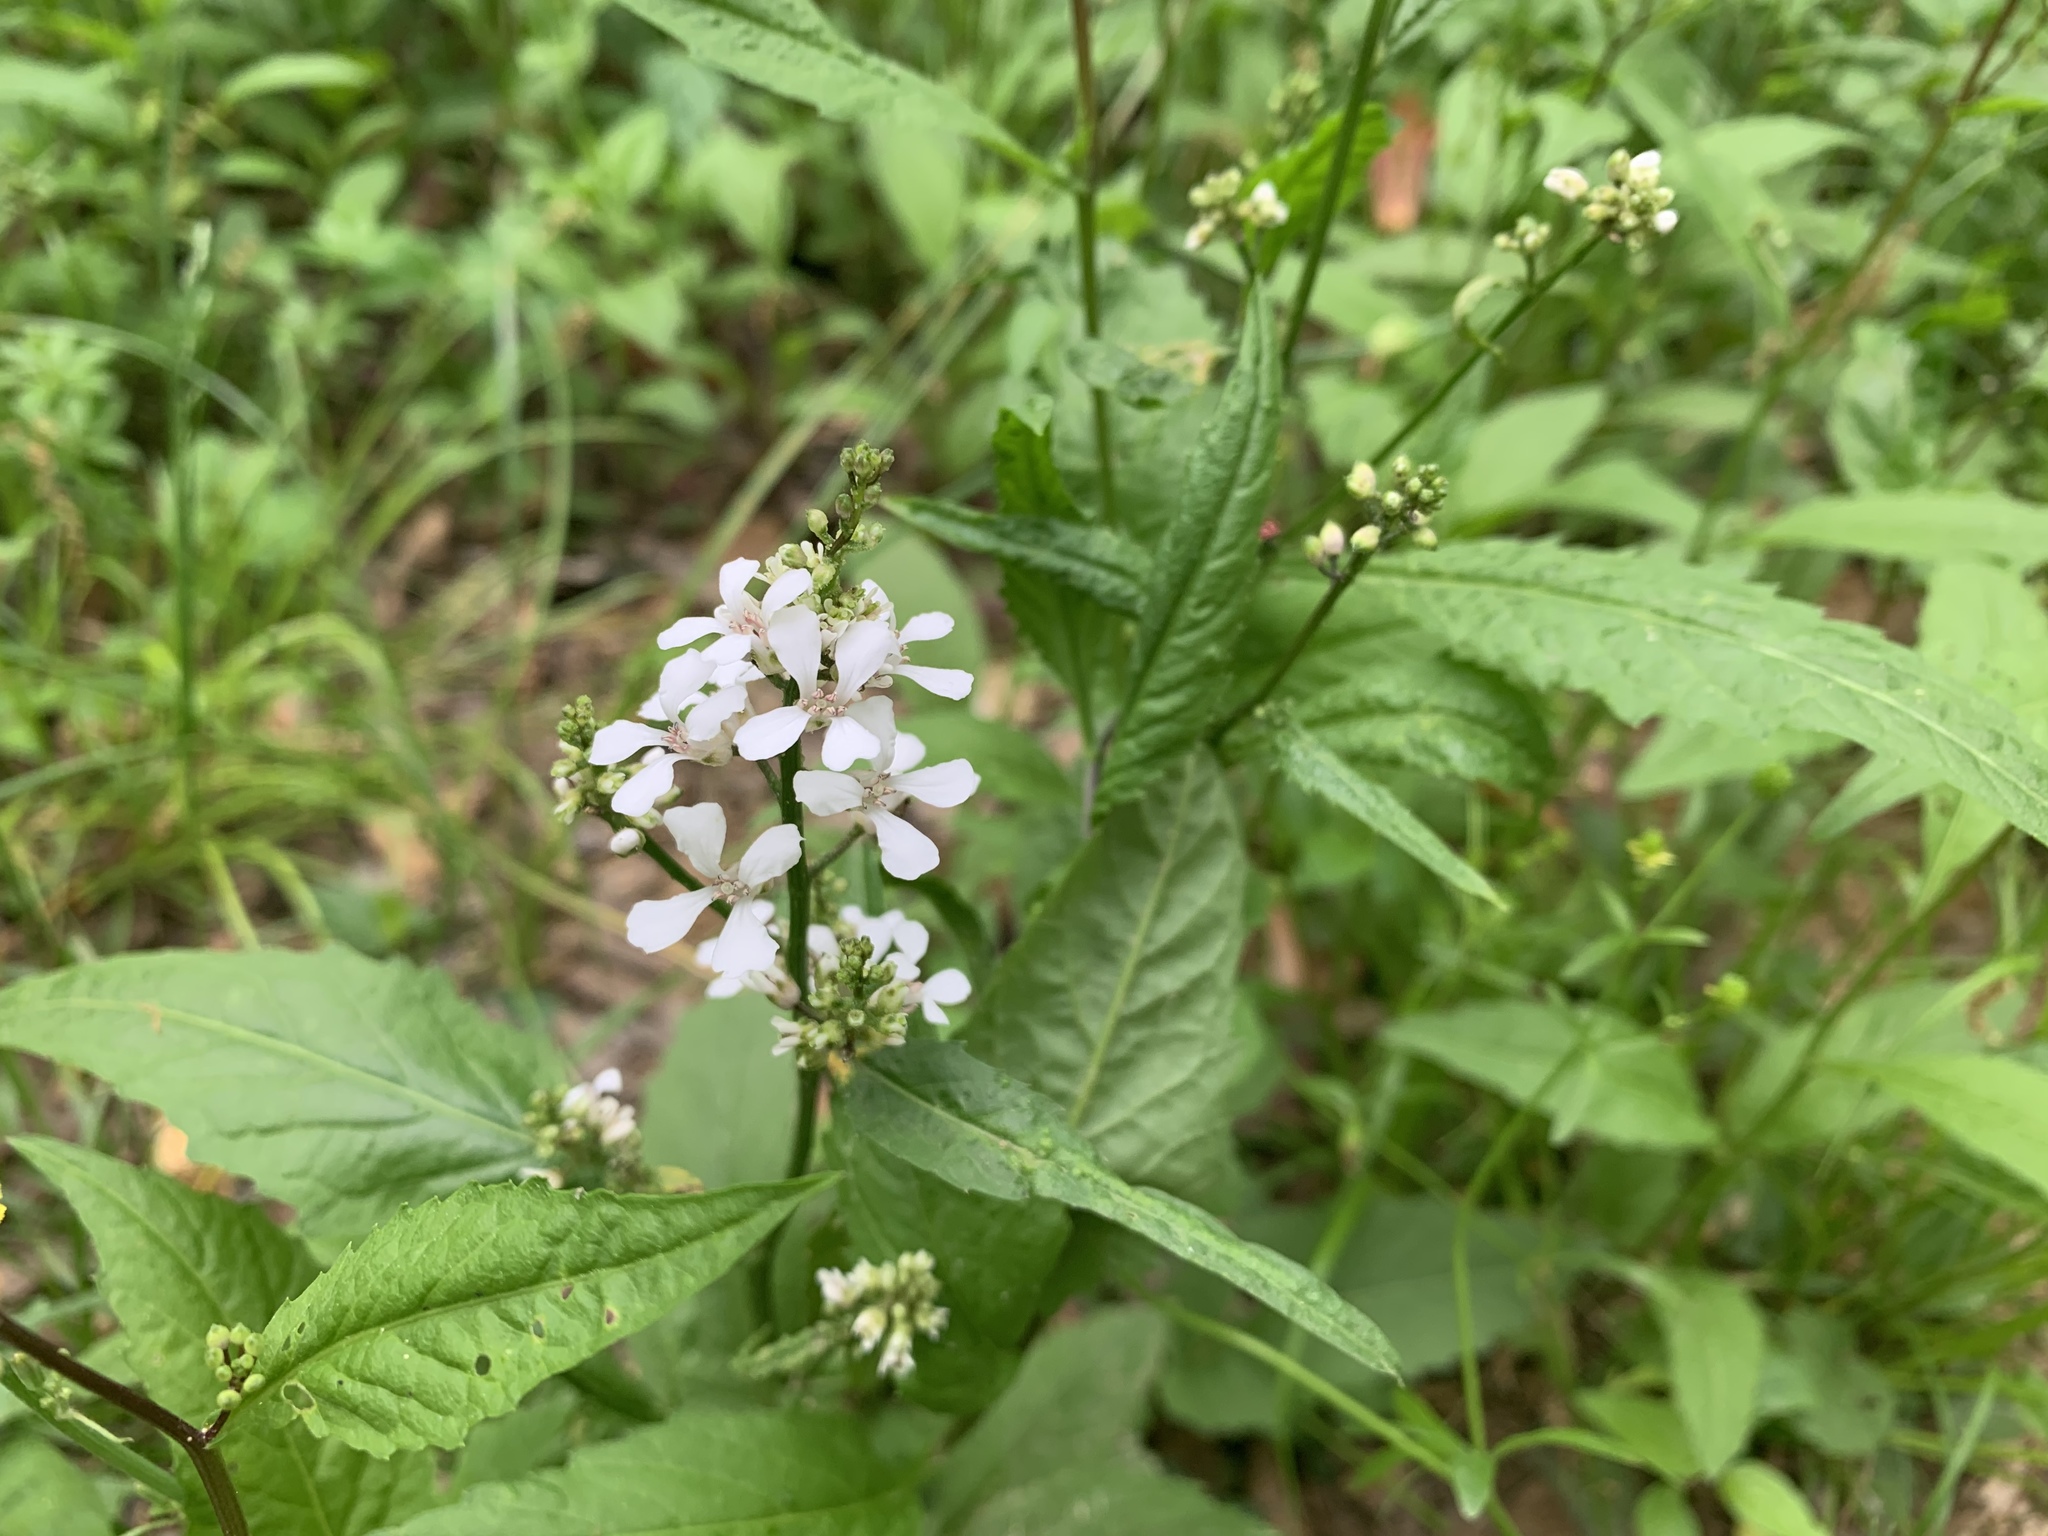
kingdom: Plantae
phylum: Tracheophyta
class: Magnoliopsida
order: Brassicales
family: Brassicaceae
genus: Iodanthus
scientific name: Iodanthus pinnatifidus
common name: Violet rocket
